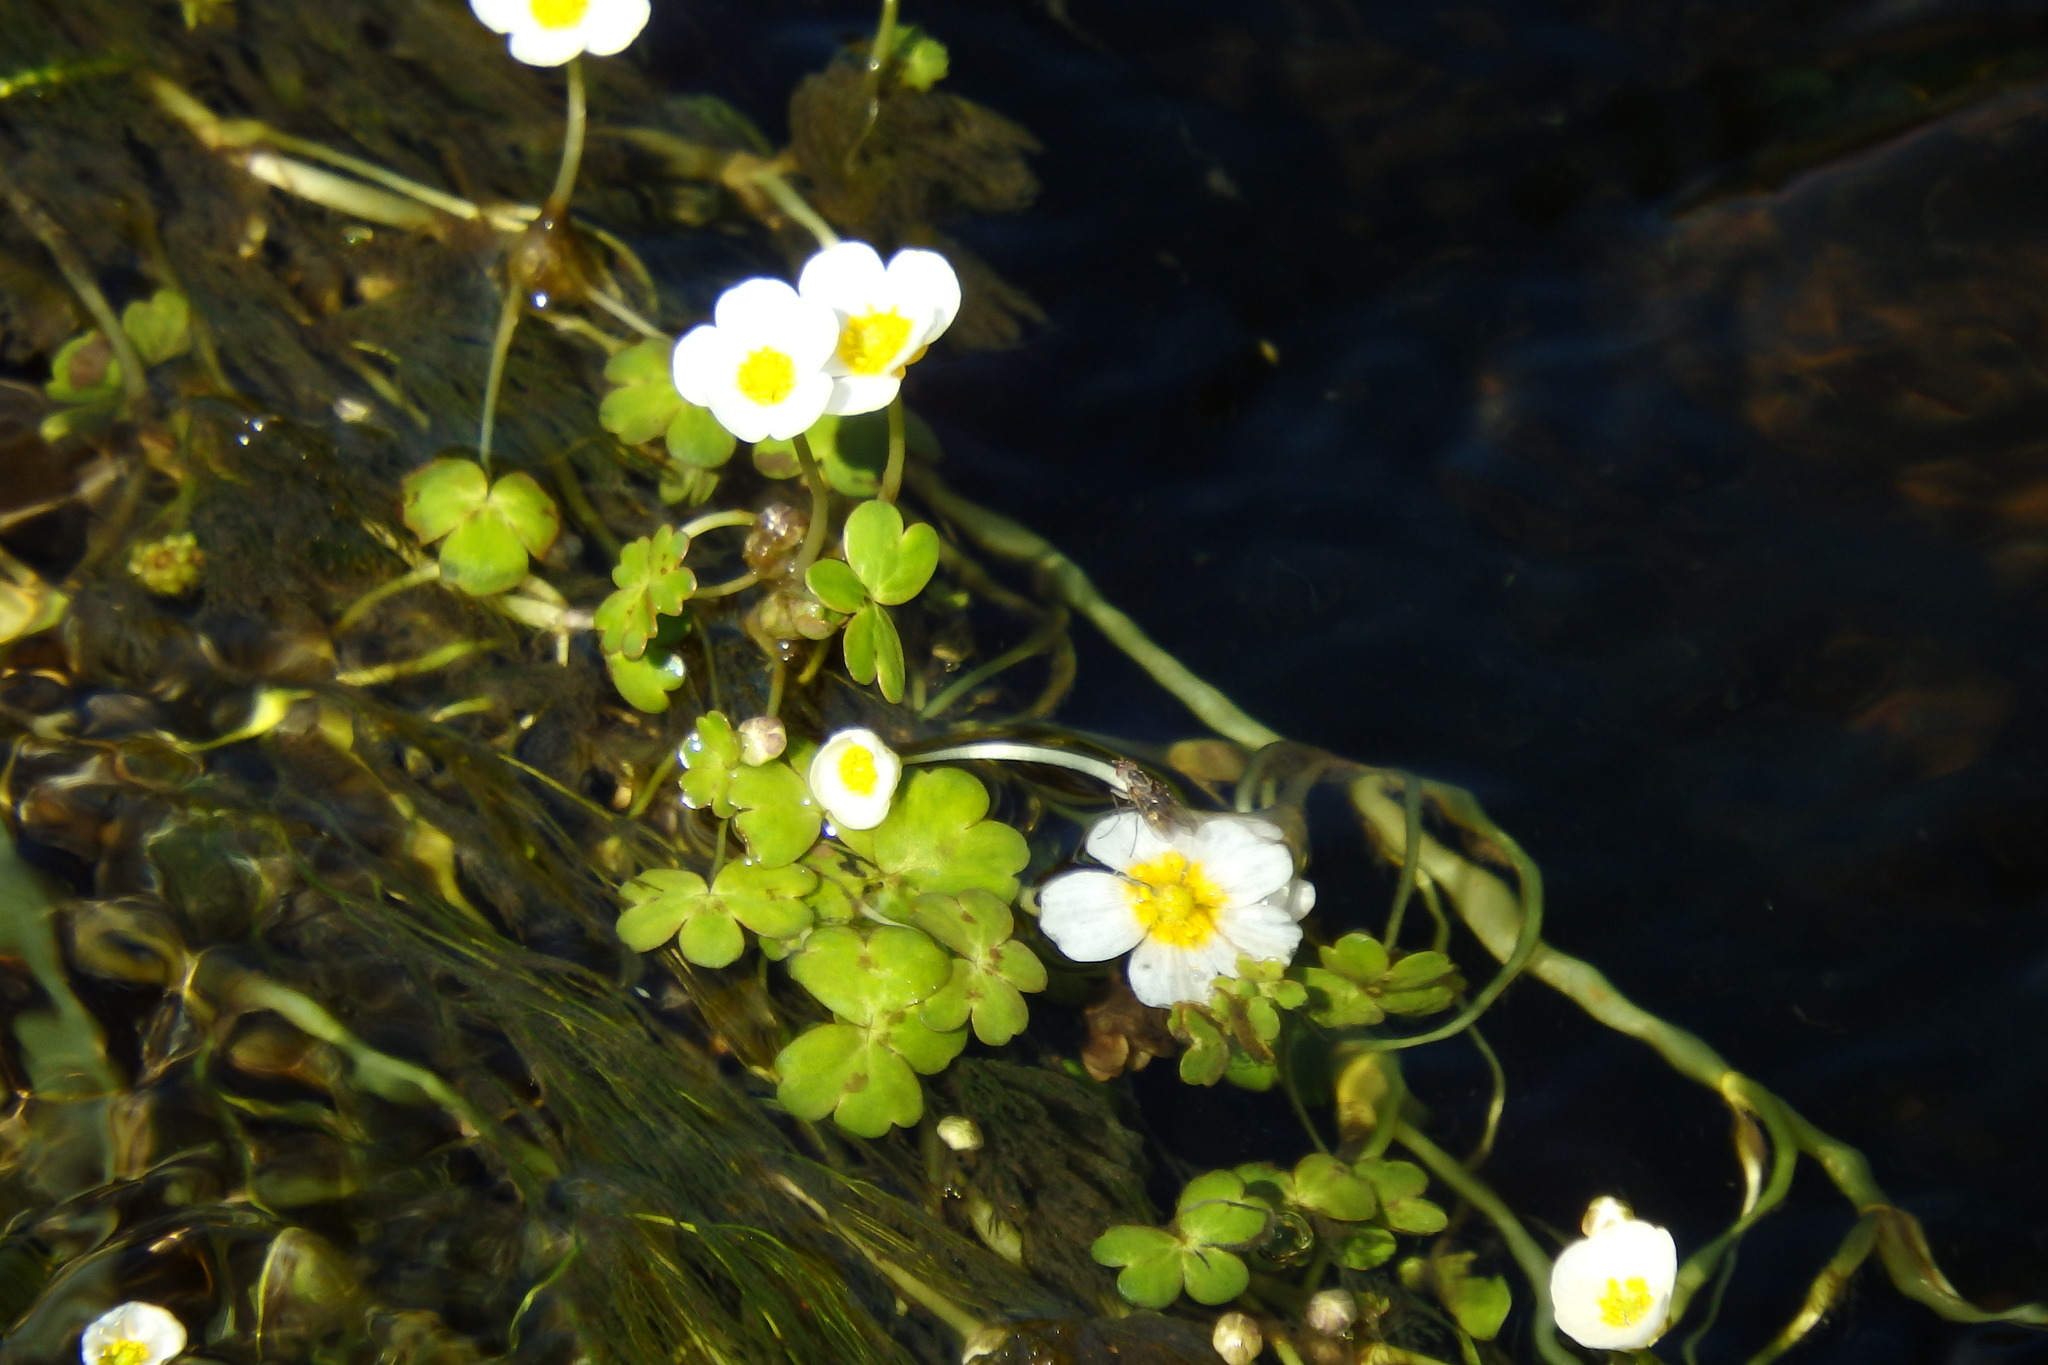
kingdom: Plantae
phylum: Tracheophyta
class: Magnoliopsida
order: Ranunculales
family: Ranunculaceae
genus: Ranunculus
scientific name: Ranunculus
